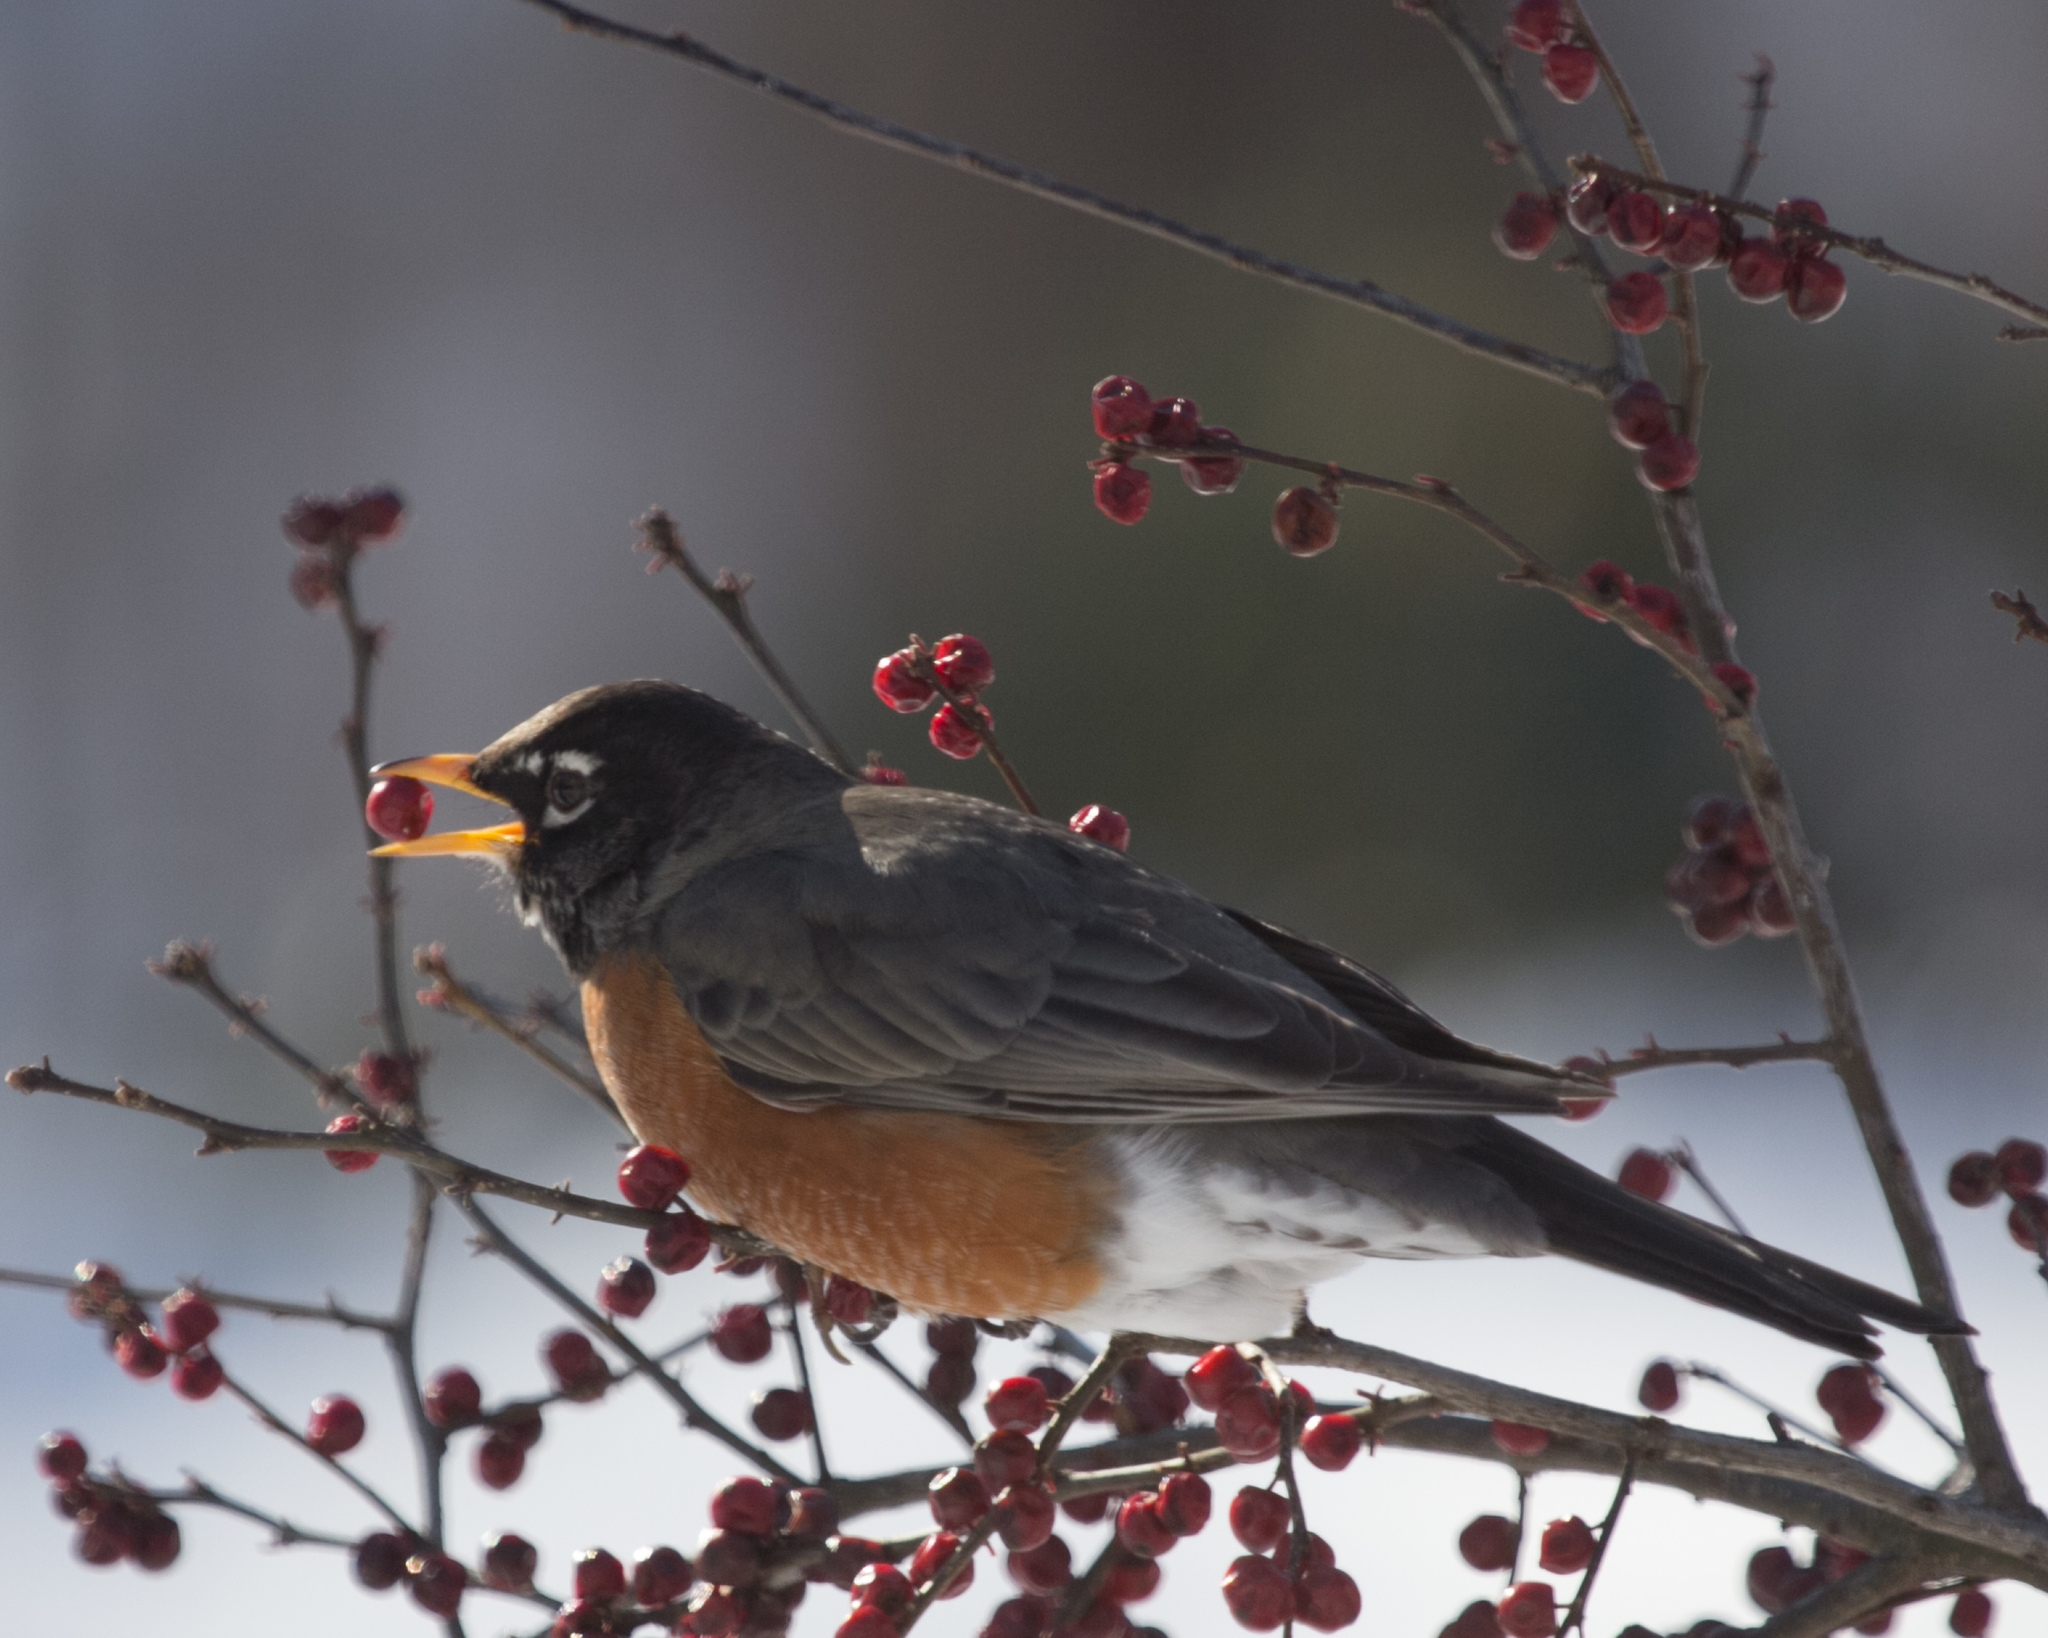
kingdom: Animalia
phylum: Chordata
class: Aves
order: Passeriformes
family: Turdidae
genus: Turdus
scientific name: Turdus migratorius
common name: American robin
